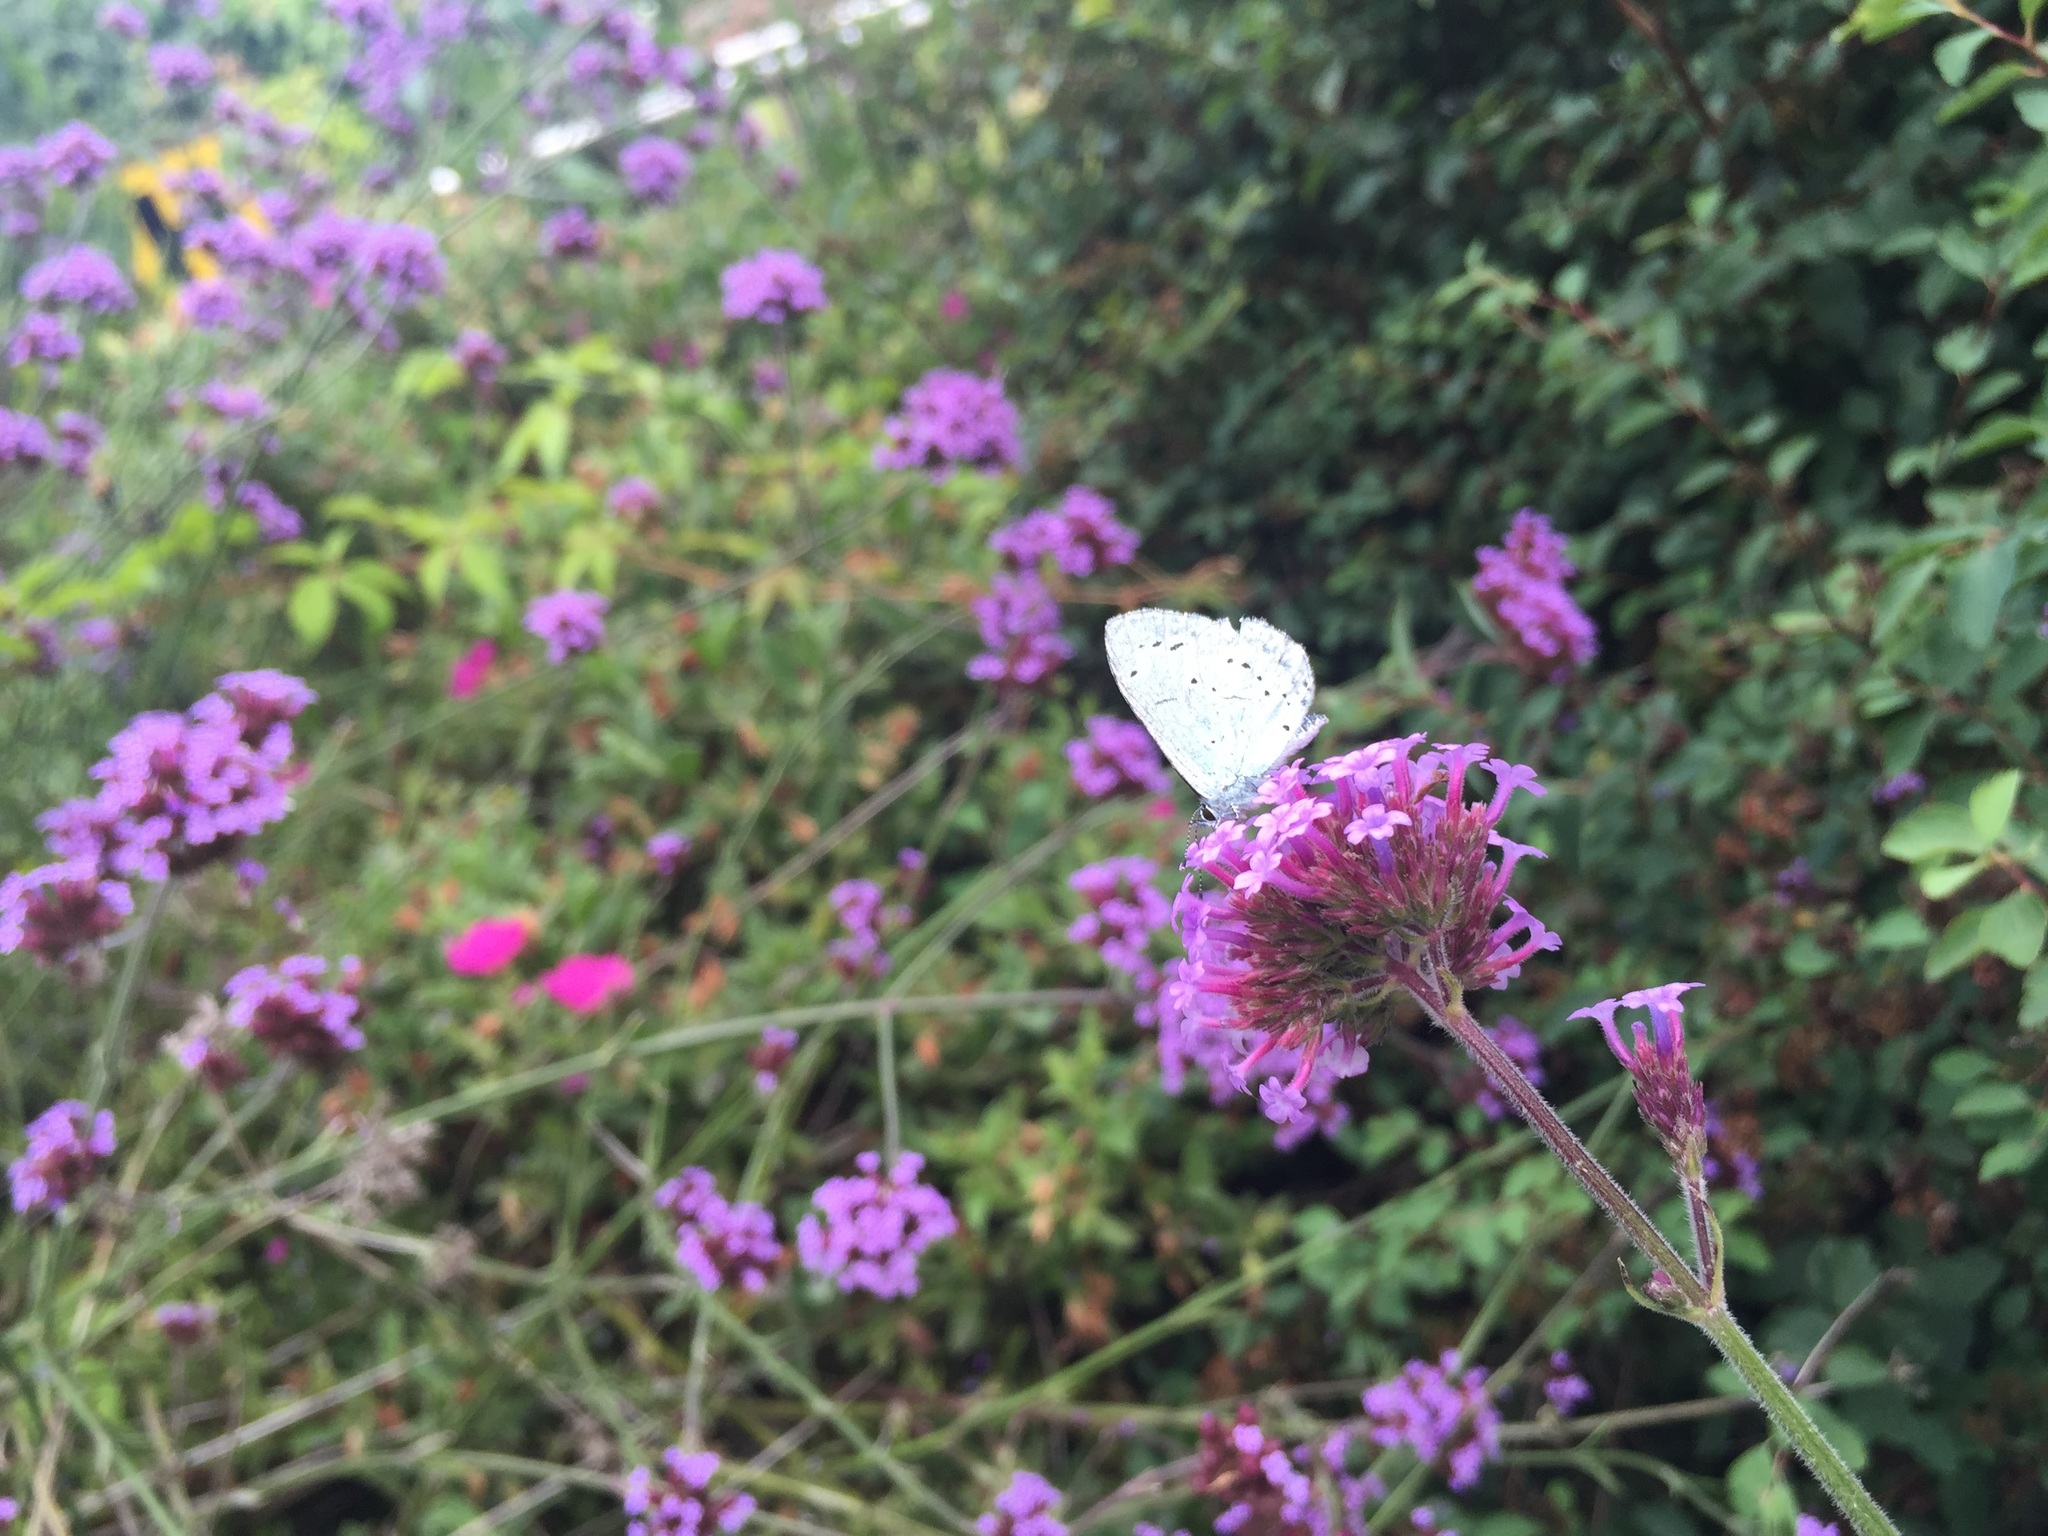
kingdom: Animalia
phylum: Arthropoda
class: Insecta
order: Lepidoptera
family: Lycaenidae
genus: Celastrina
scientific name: Celastrina argiolus
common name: Holly blue
